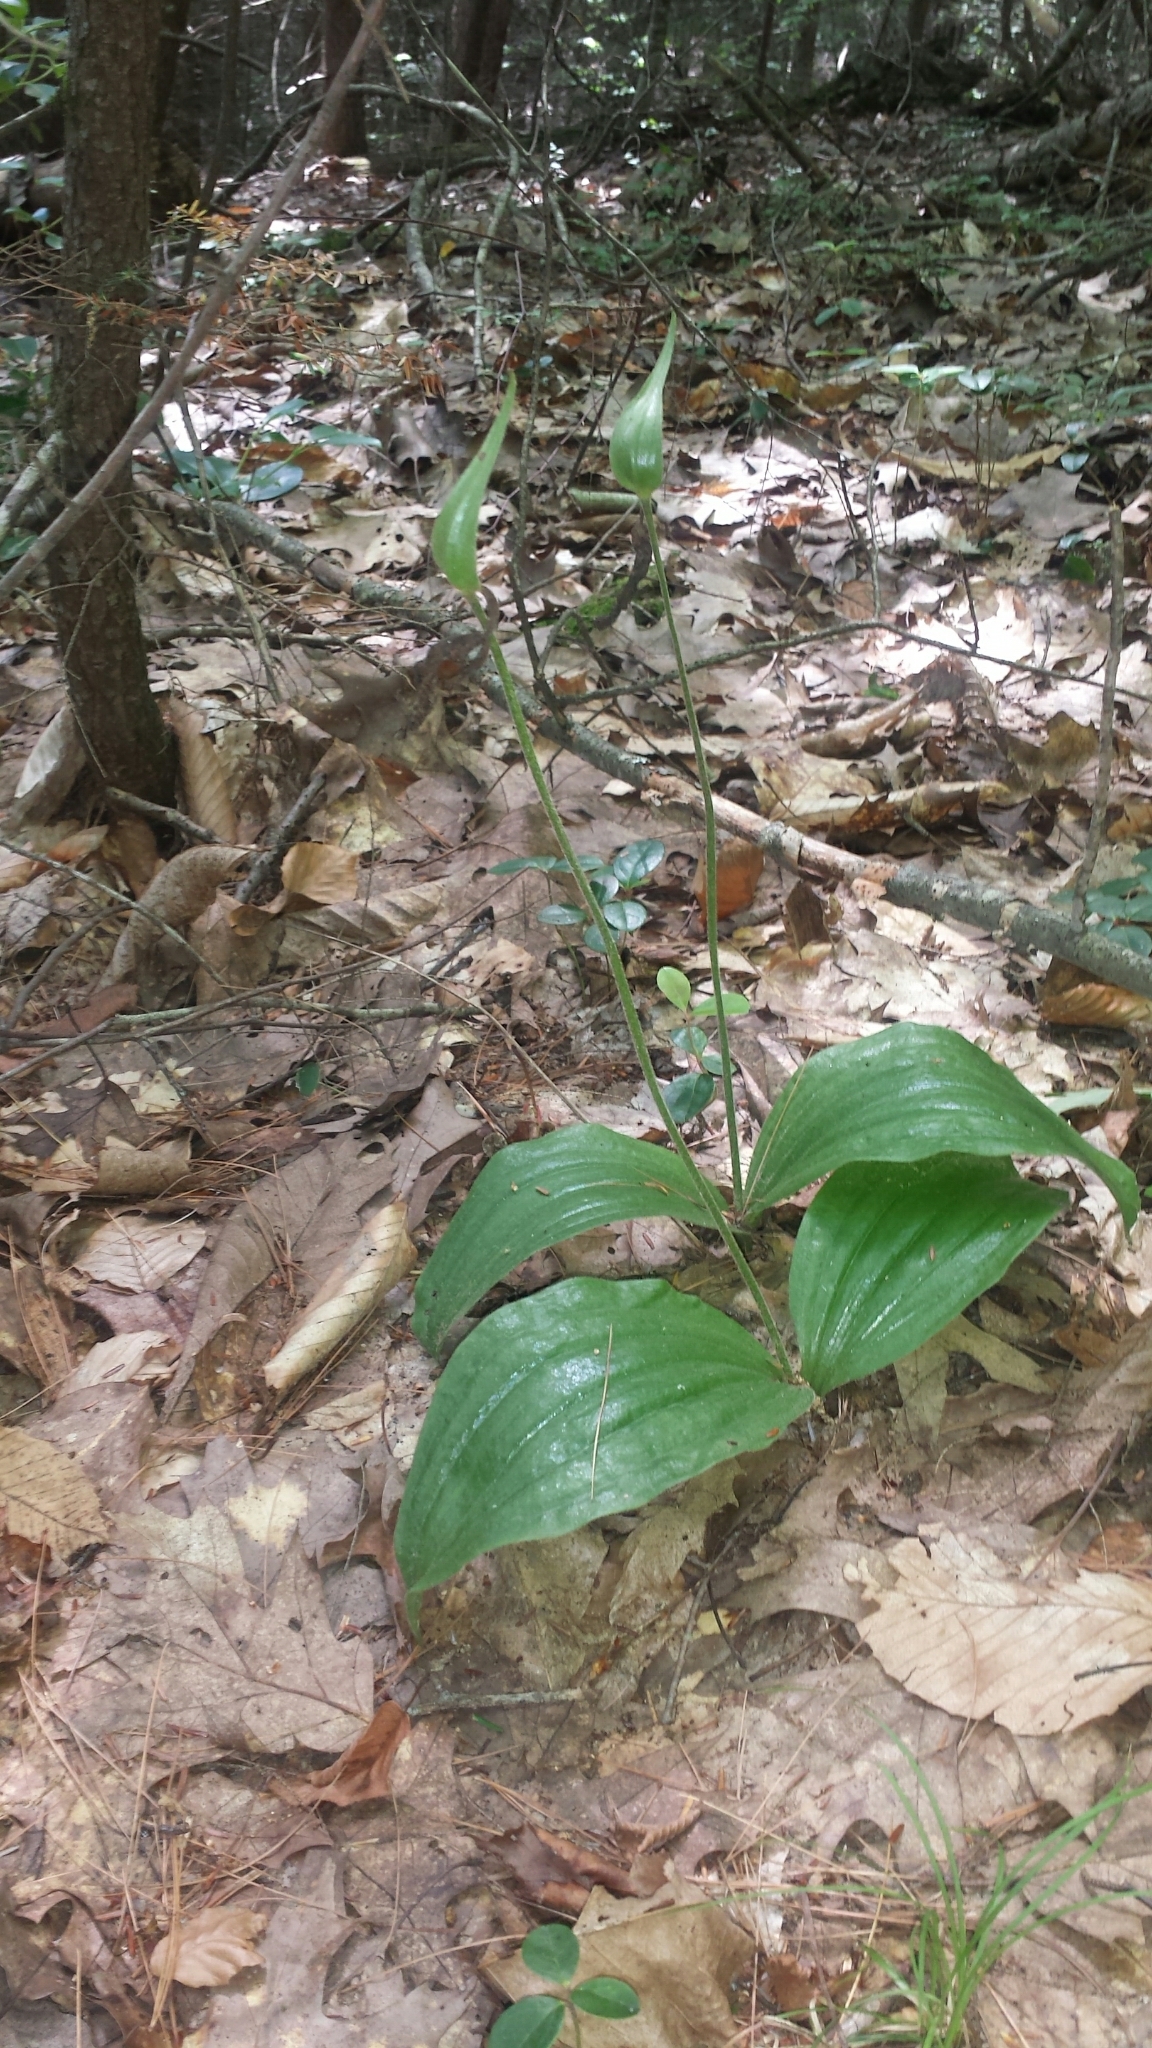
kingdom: Plantae
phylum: Tracheophyta
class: Liliopsida
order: Asparagales
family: Orchidaceae
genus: Cypripedium
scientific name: Cypripedium acaule
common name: Pink lady's-slipper
